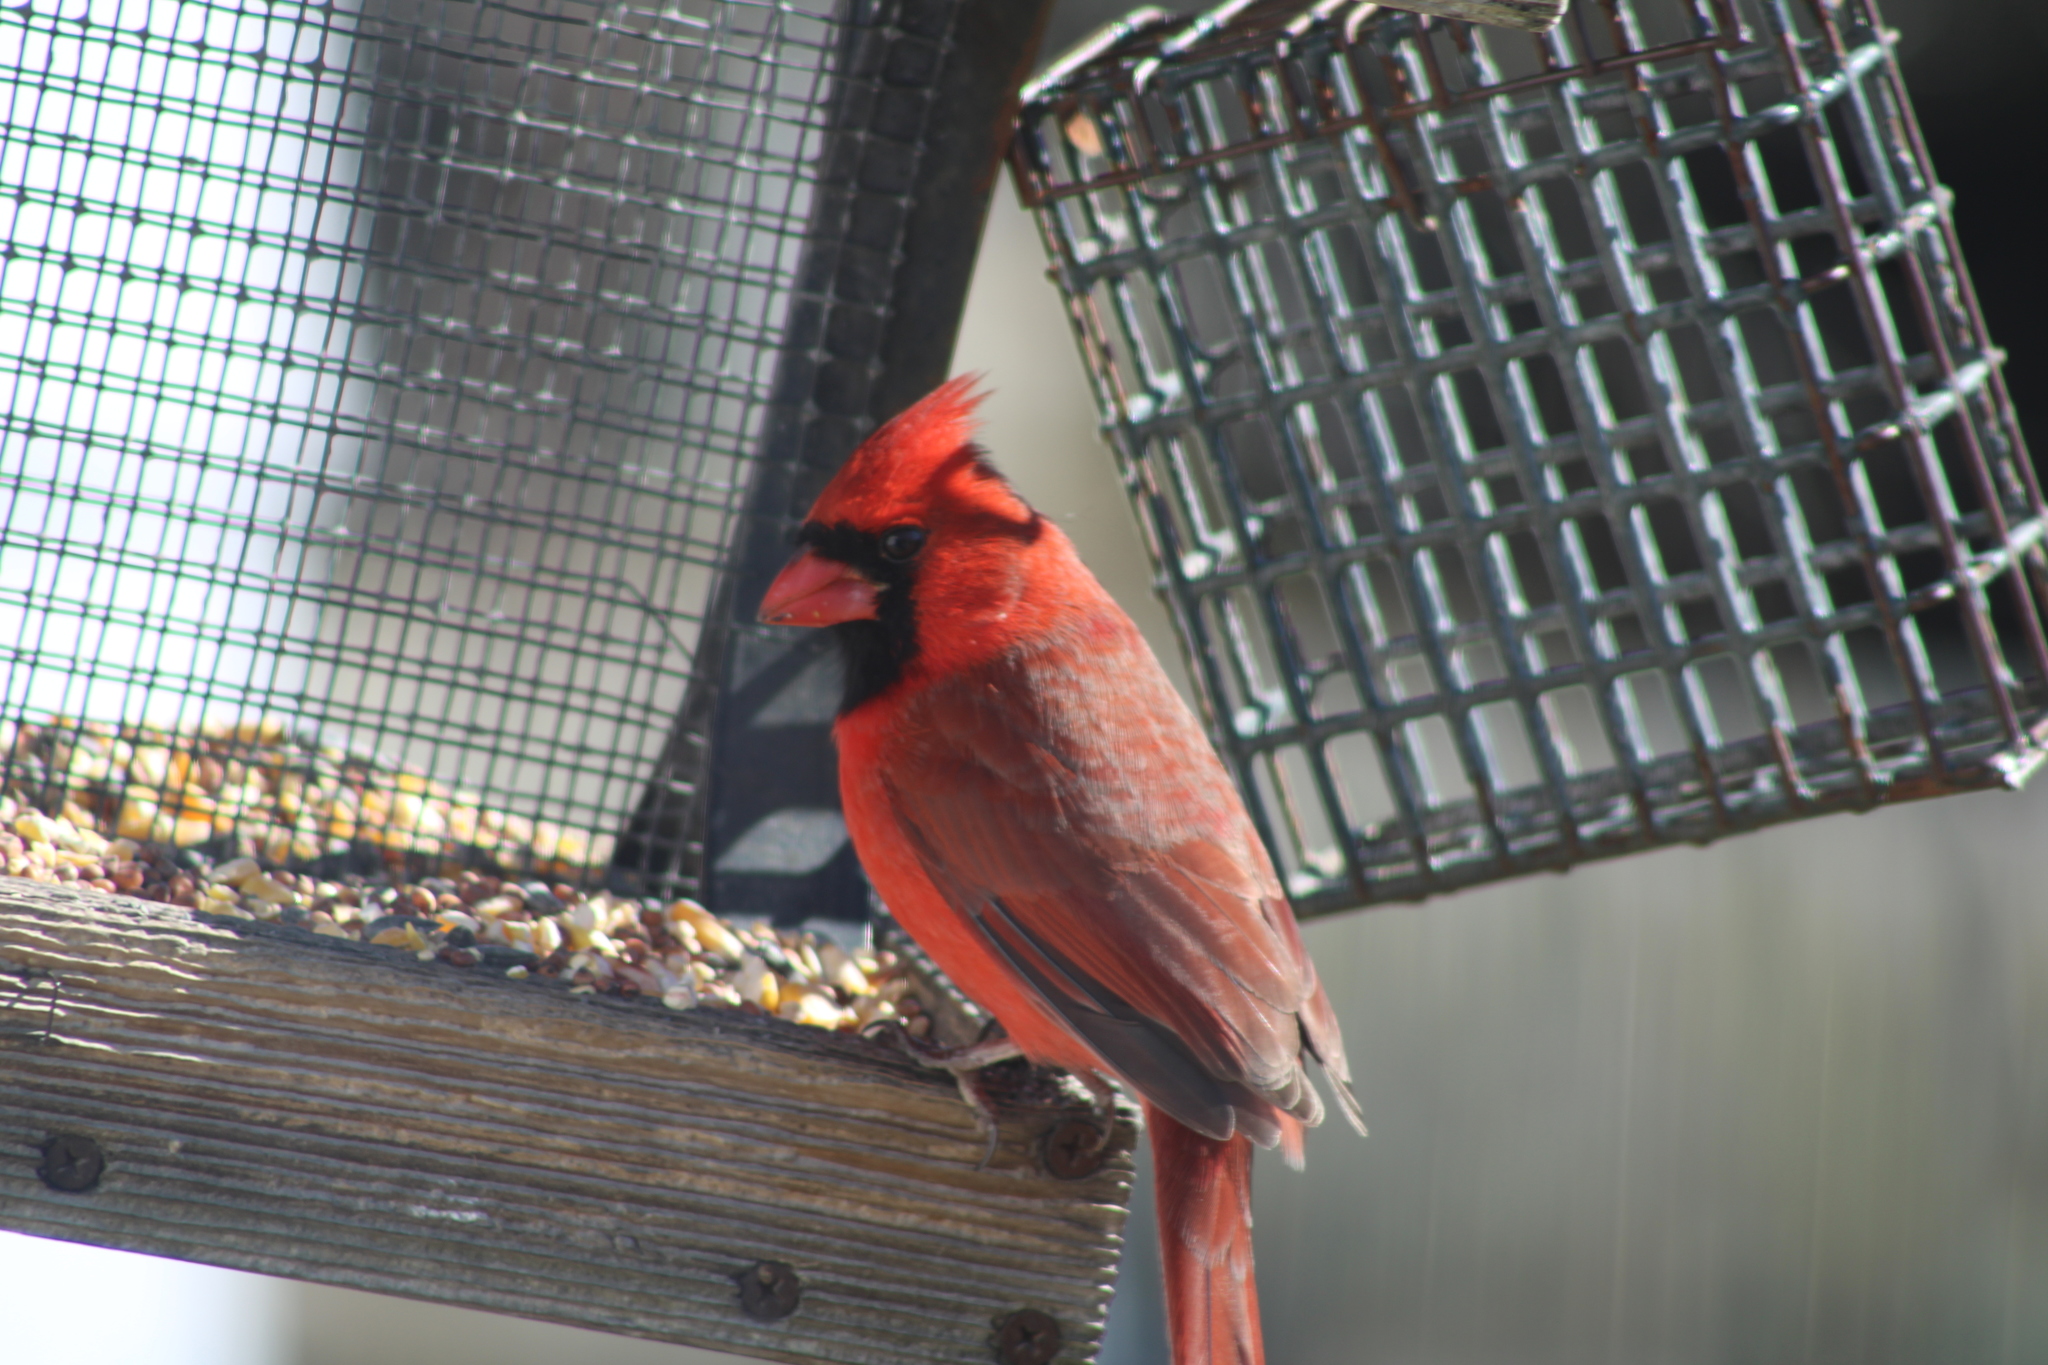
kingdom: Animalia
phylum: Chordata
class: Aves
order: Passeriformes
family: Cardinalidae
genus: Cardinalis
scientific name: Cardinalis cardinalis
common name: Northern cardinal
